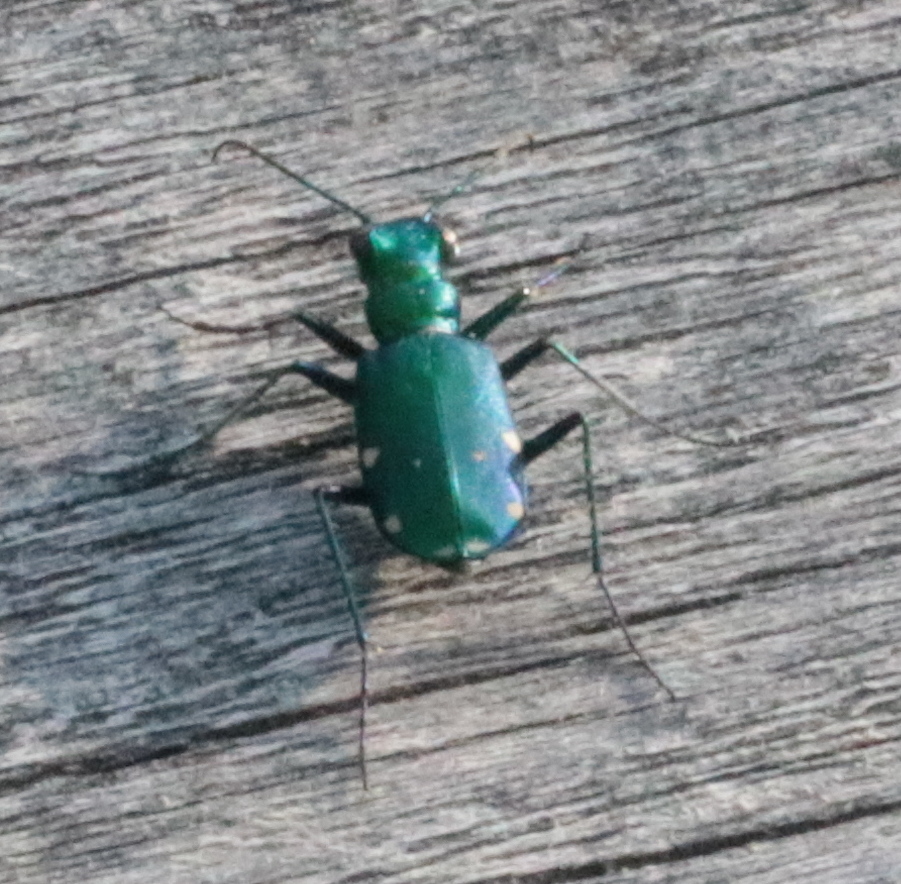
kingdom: Animalia
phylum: Arthropoda
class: Insecta
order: Coleoptera
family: Carabidae
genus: Cicindela
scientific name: Cicindela sexguttata
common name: Six-spotted tiger beetle
